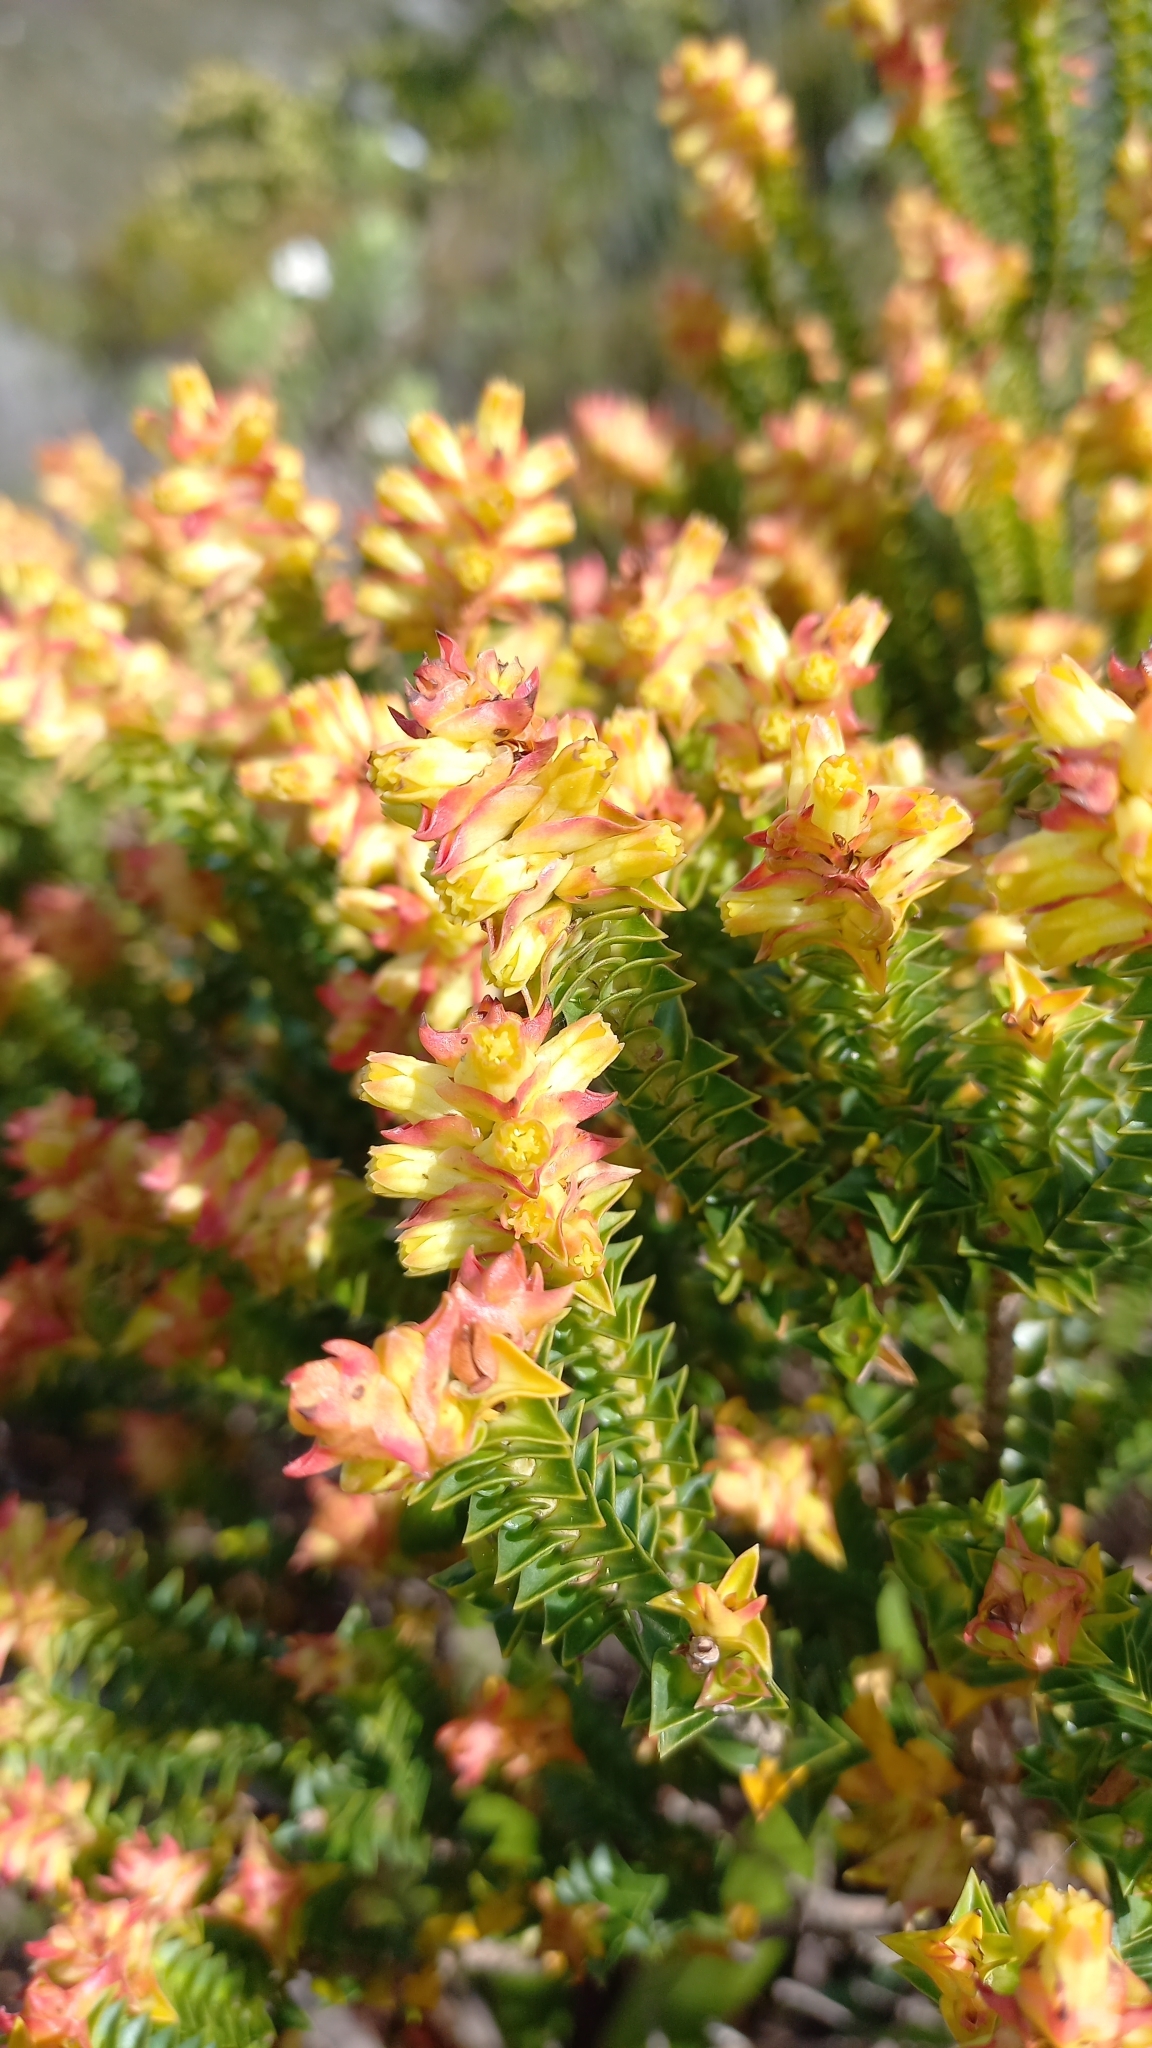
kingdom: Plantae
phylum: Tracheophyta
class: Magnoliopsida
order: Myrtales
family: Penaeaceae
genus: Penaea
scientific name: Penaea mucronata
